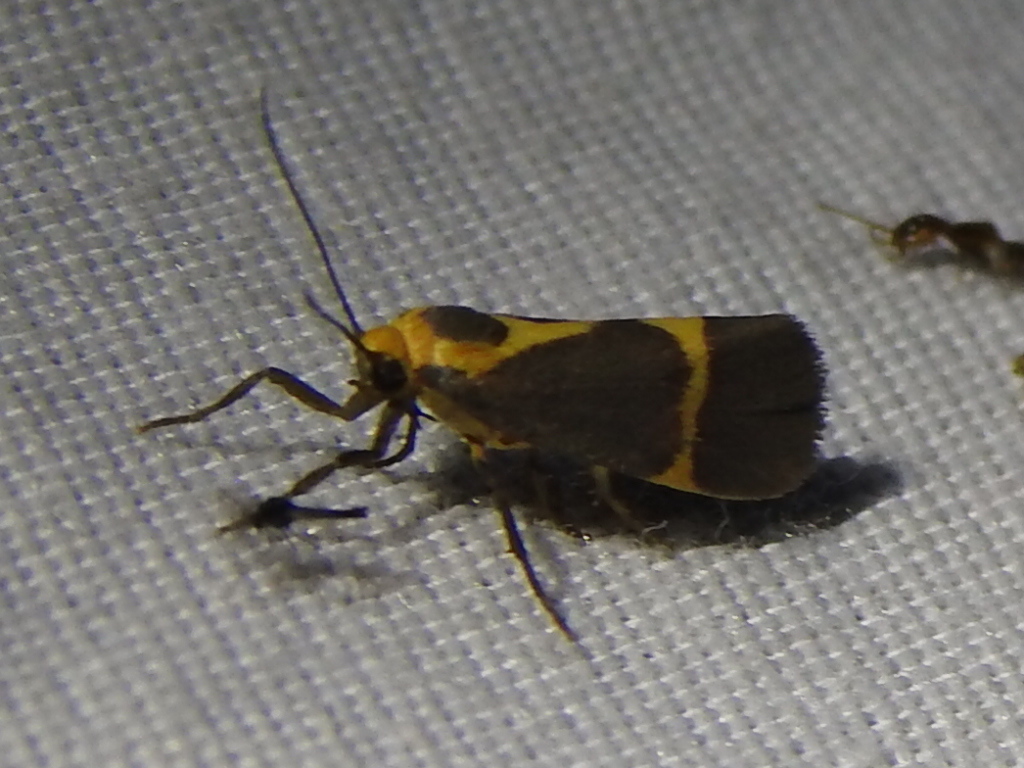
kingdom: Animalia
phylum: Arthropoda
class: Insecta
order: Lepidoptera
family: Erebidae
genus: Cisthene
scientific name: Cisthene tenuifascia
